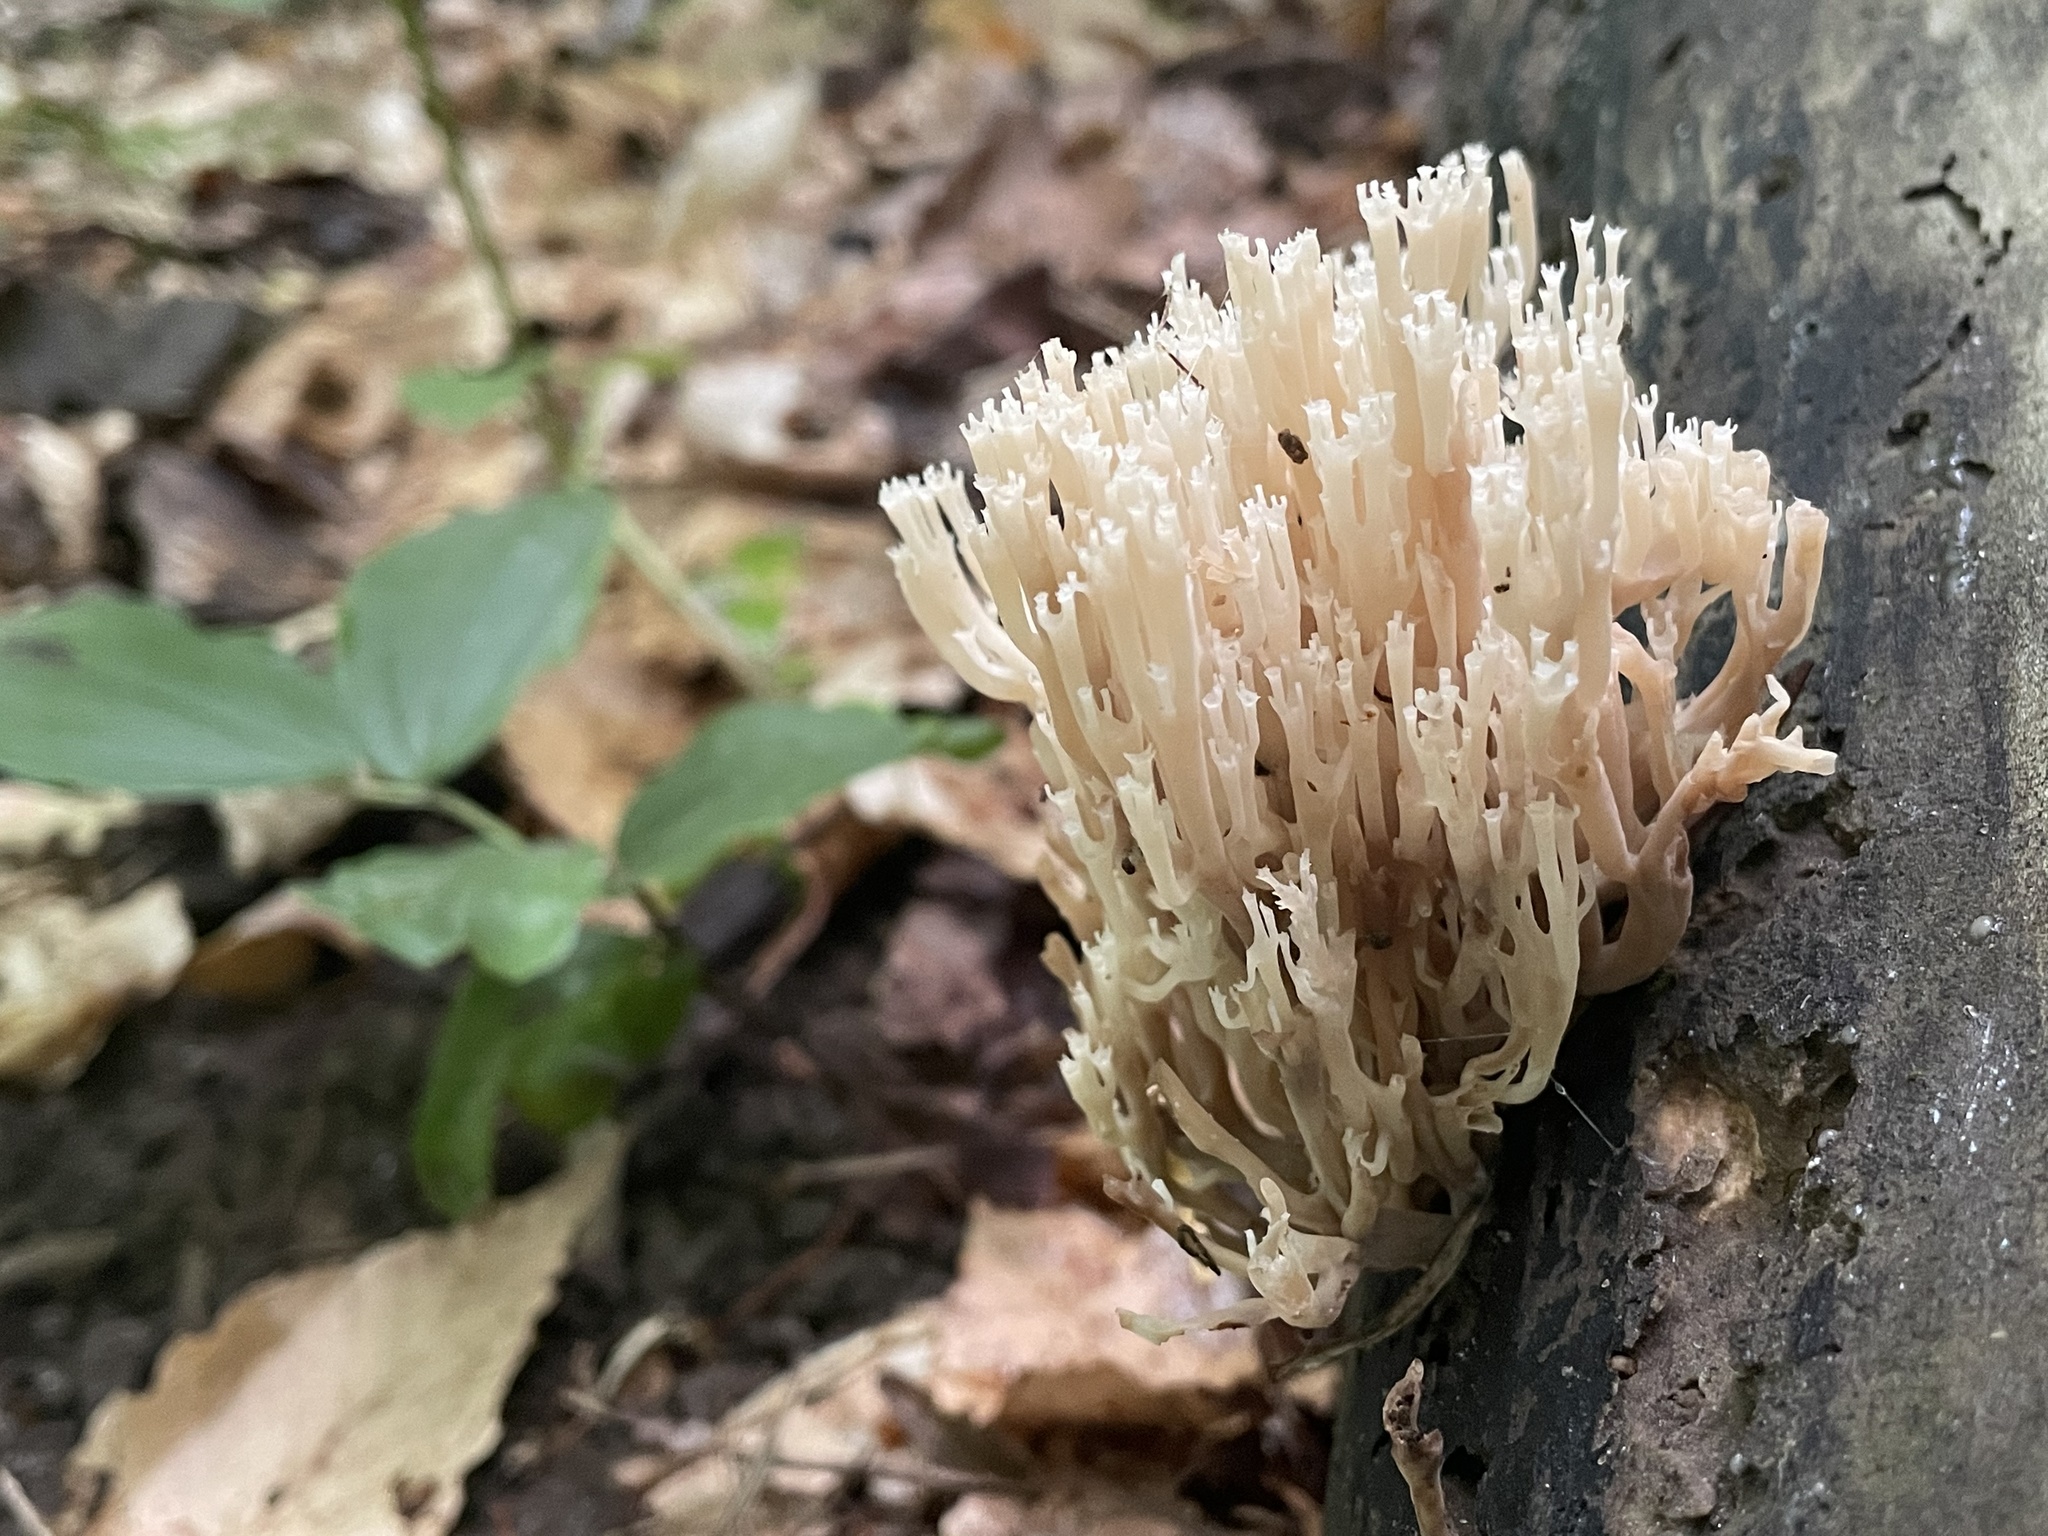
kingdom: Fungi
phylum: Basidiomycota
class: Agaricomycetes
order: Russulales
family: Auriscalpiaceae
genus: Artomyces
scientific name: Artomyces pyxidatus
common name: Crown-tipped coral fungus
